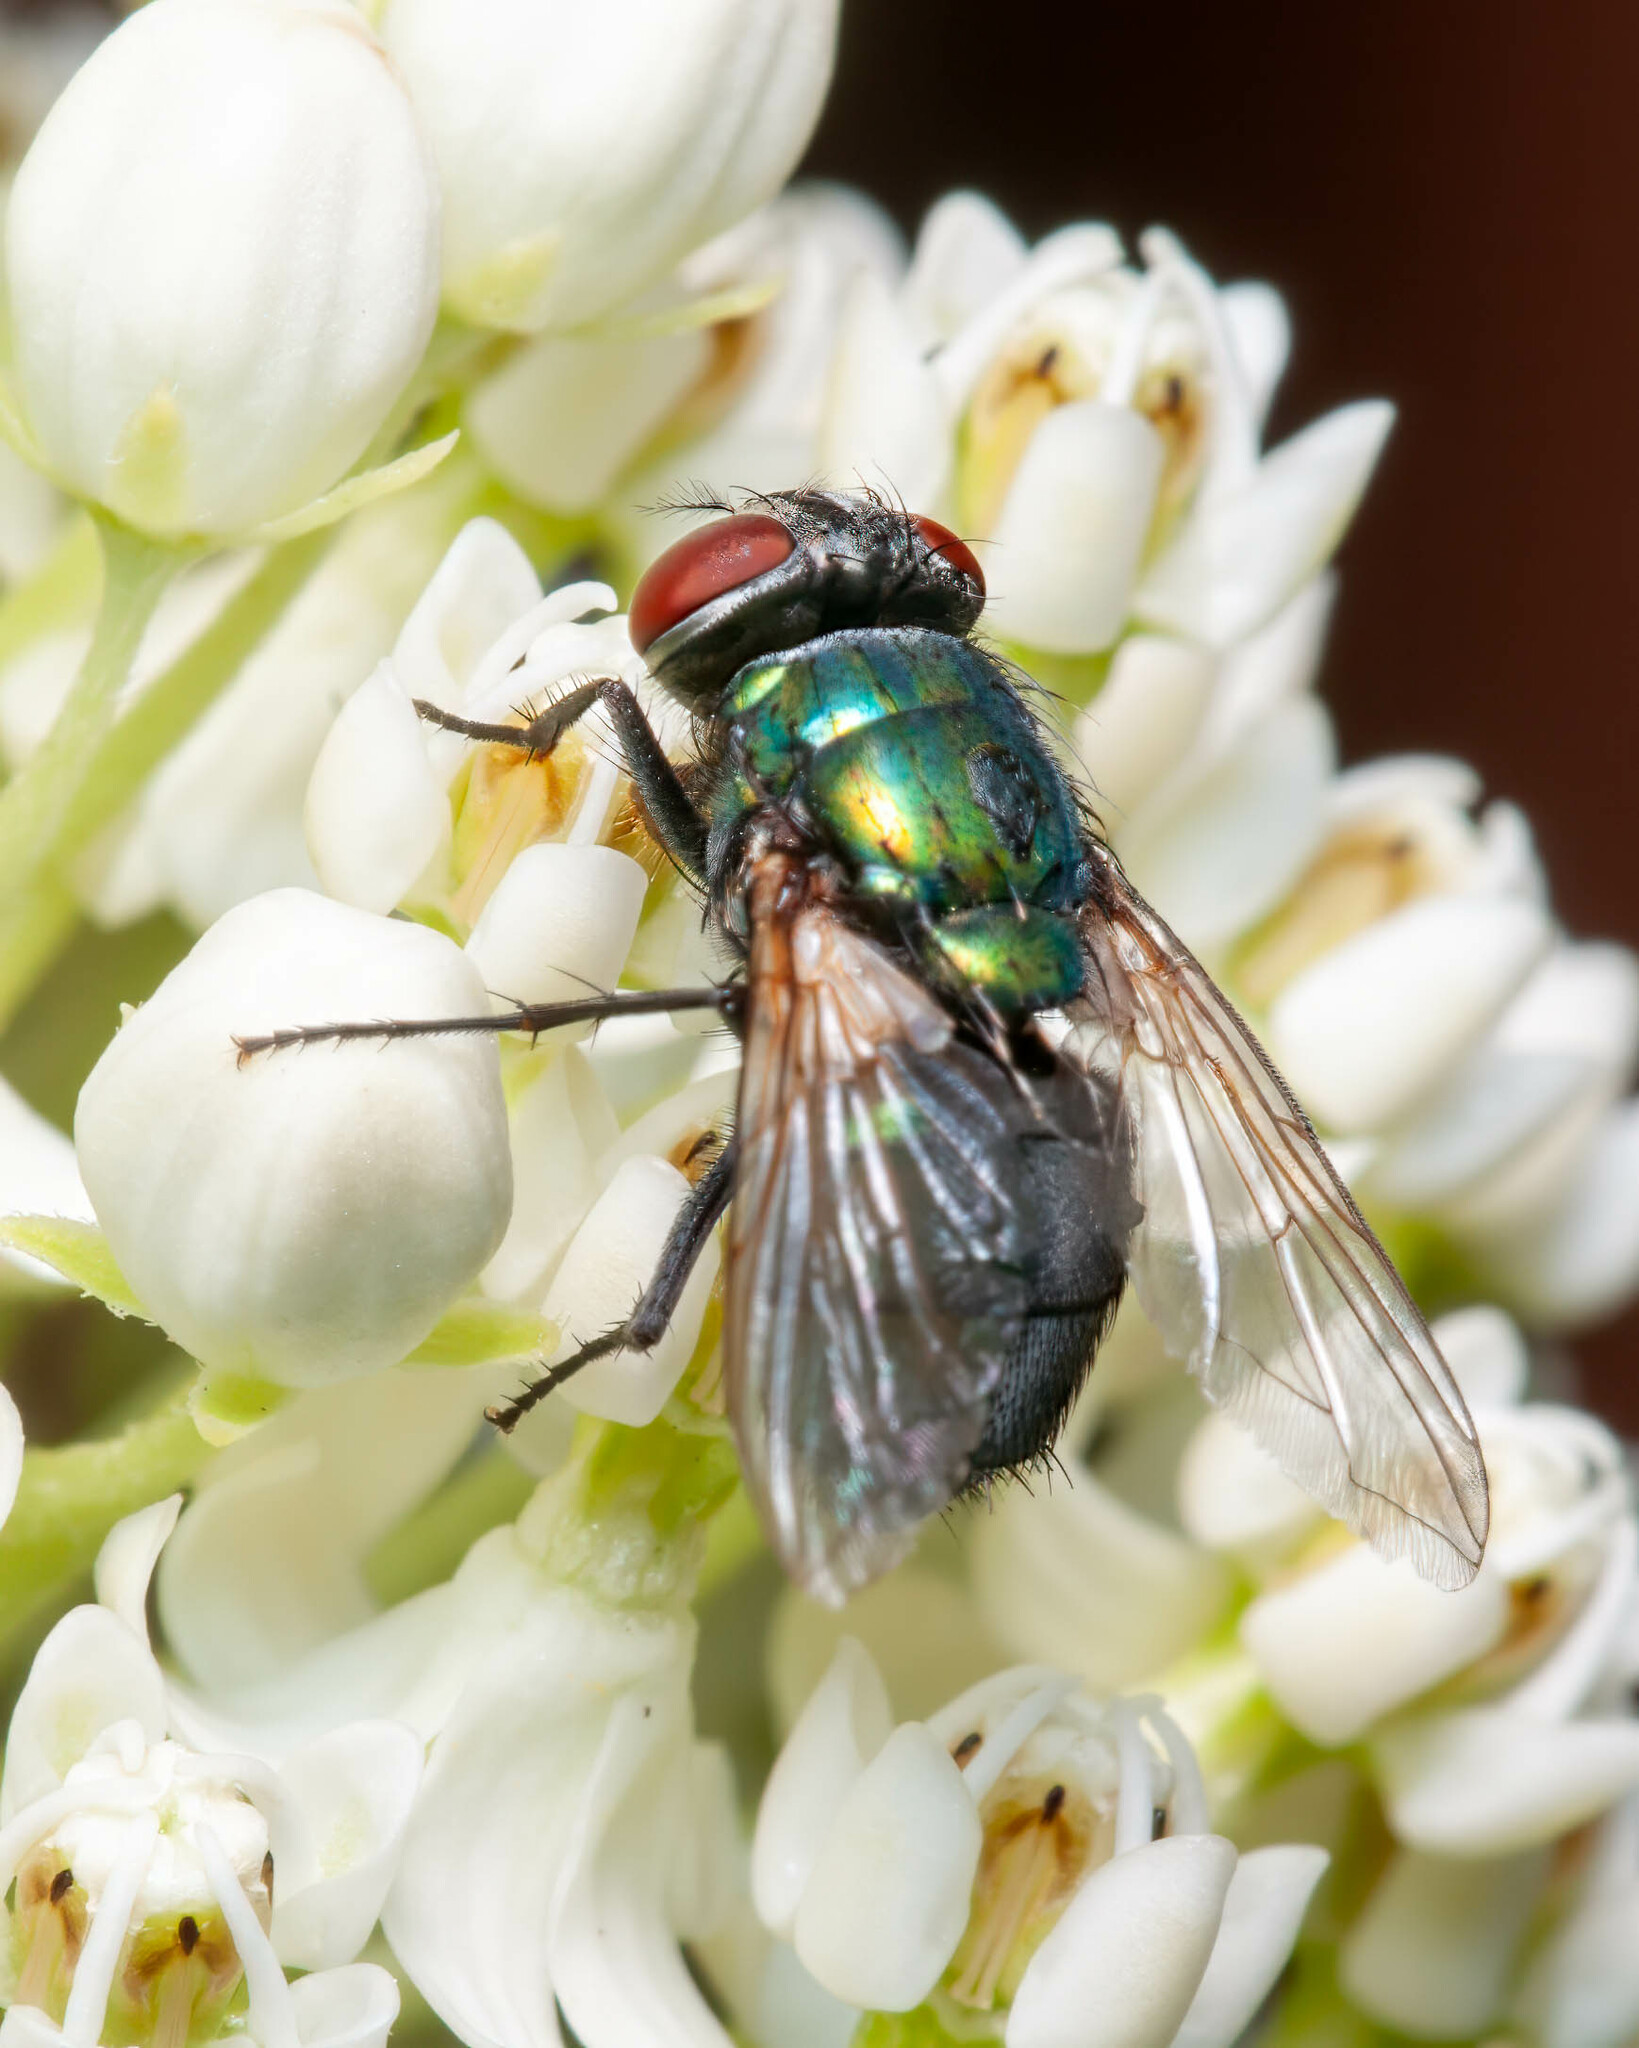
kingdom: Animalia
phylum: Arthropoda
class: Insecta
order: Diptera
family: Calliphoridae
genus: Lucilia
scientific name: Lucilia sericata
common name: Blow fly
